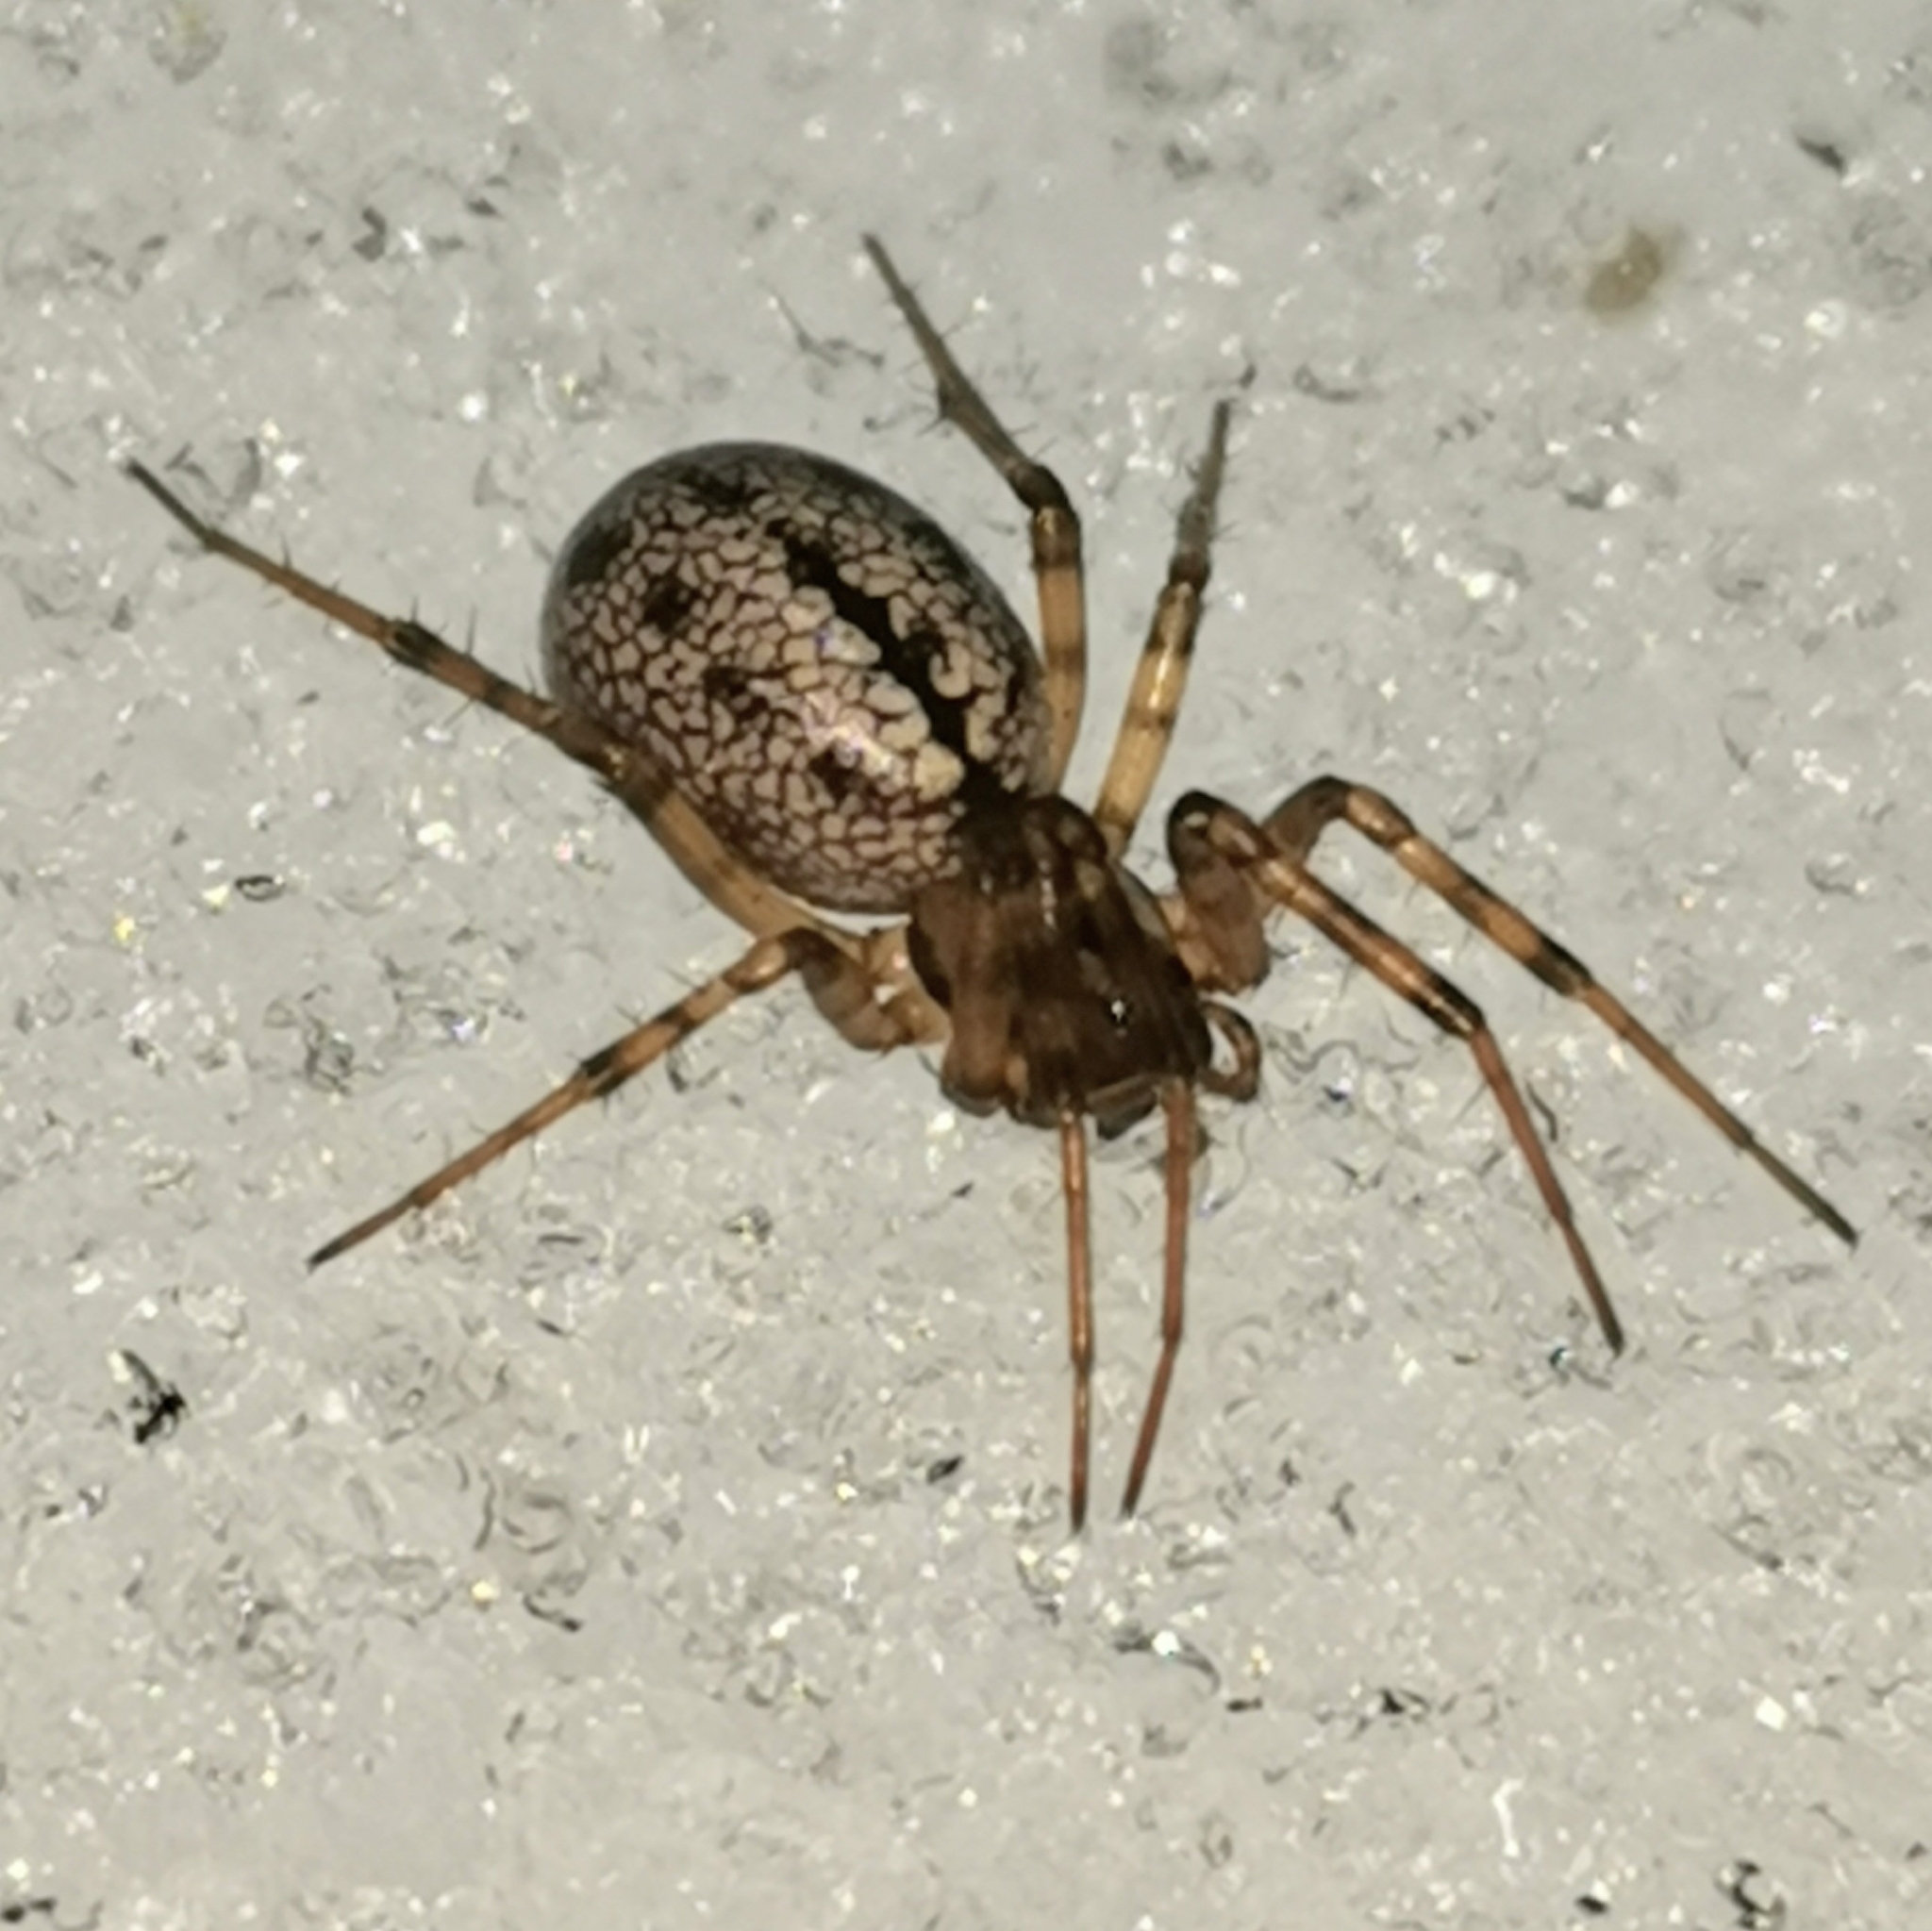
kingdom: Animalia
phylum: Arthropoda
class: Arachnida
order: Araneae
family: Linyphiidae
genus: Stemonyphantes
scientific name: Stemonyphantes lineatus
